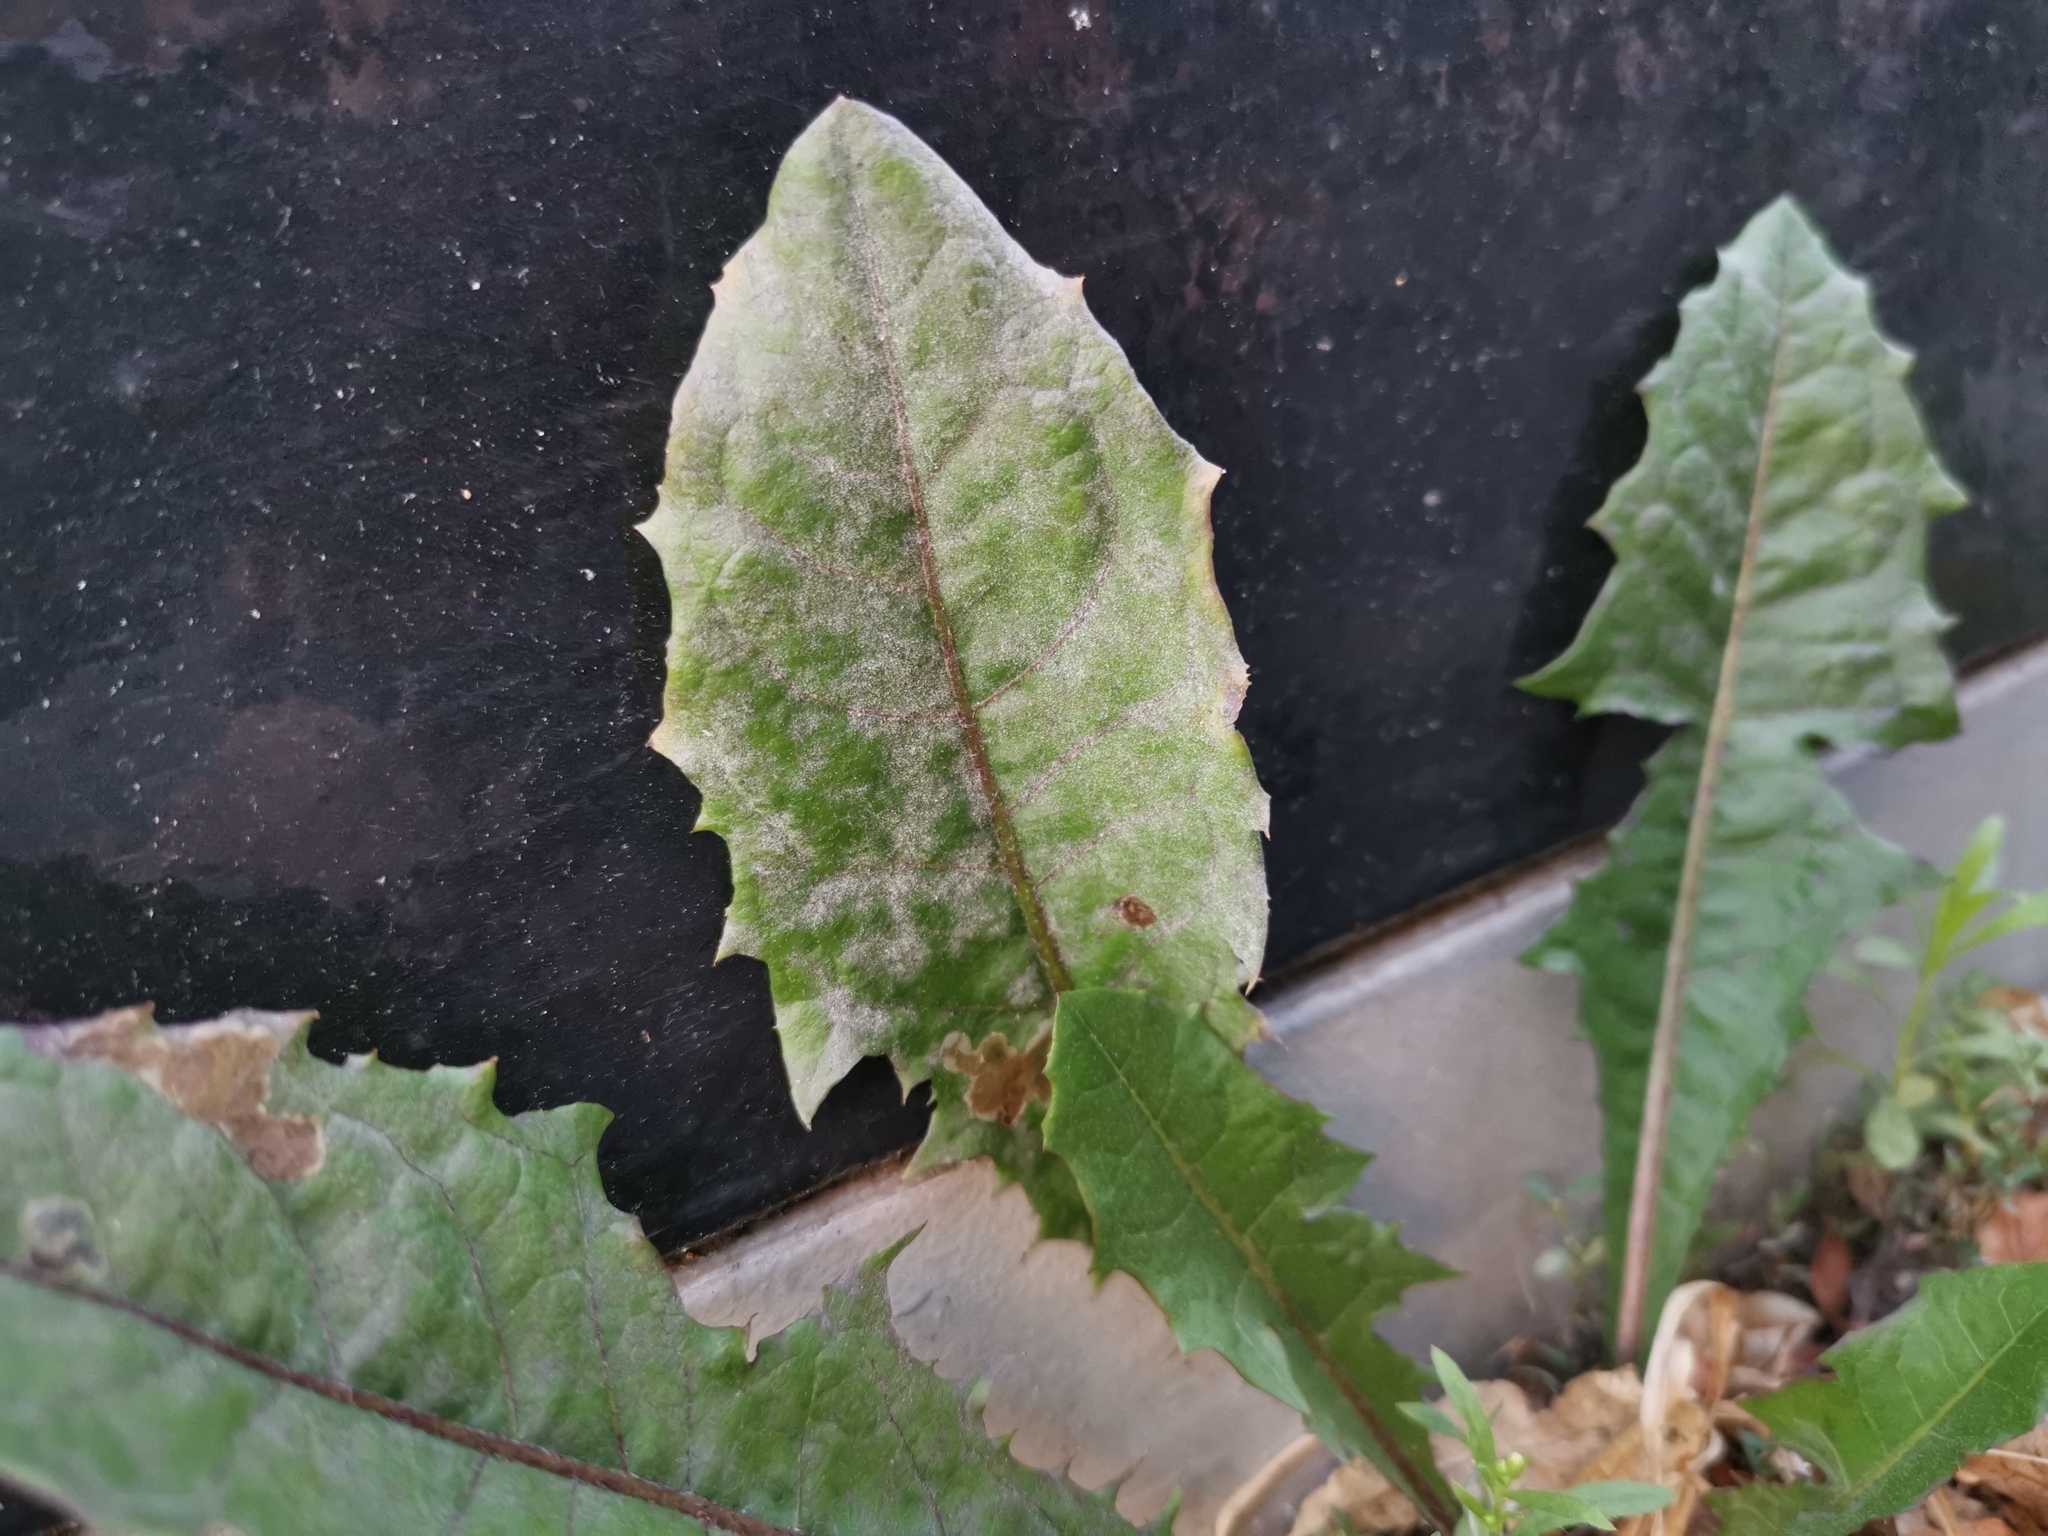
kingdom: Fungi
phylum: Ascomycota
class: Leotiomycetes
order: Helotiales
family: Erysiphaceae
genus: Podosphaera
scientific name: Podosphaera erigerontis-canadensis
